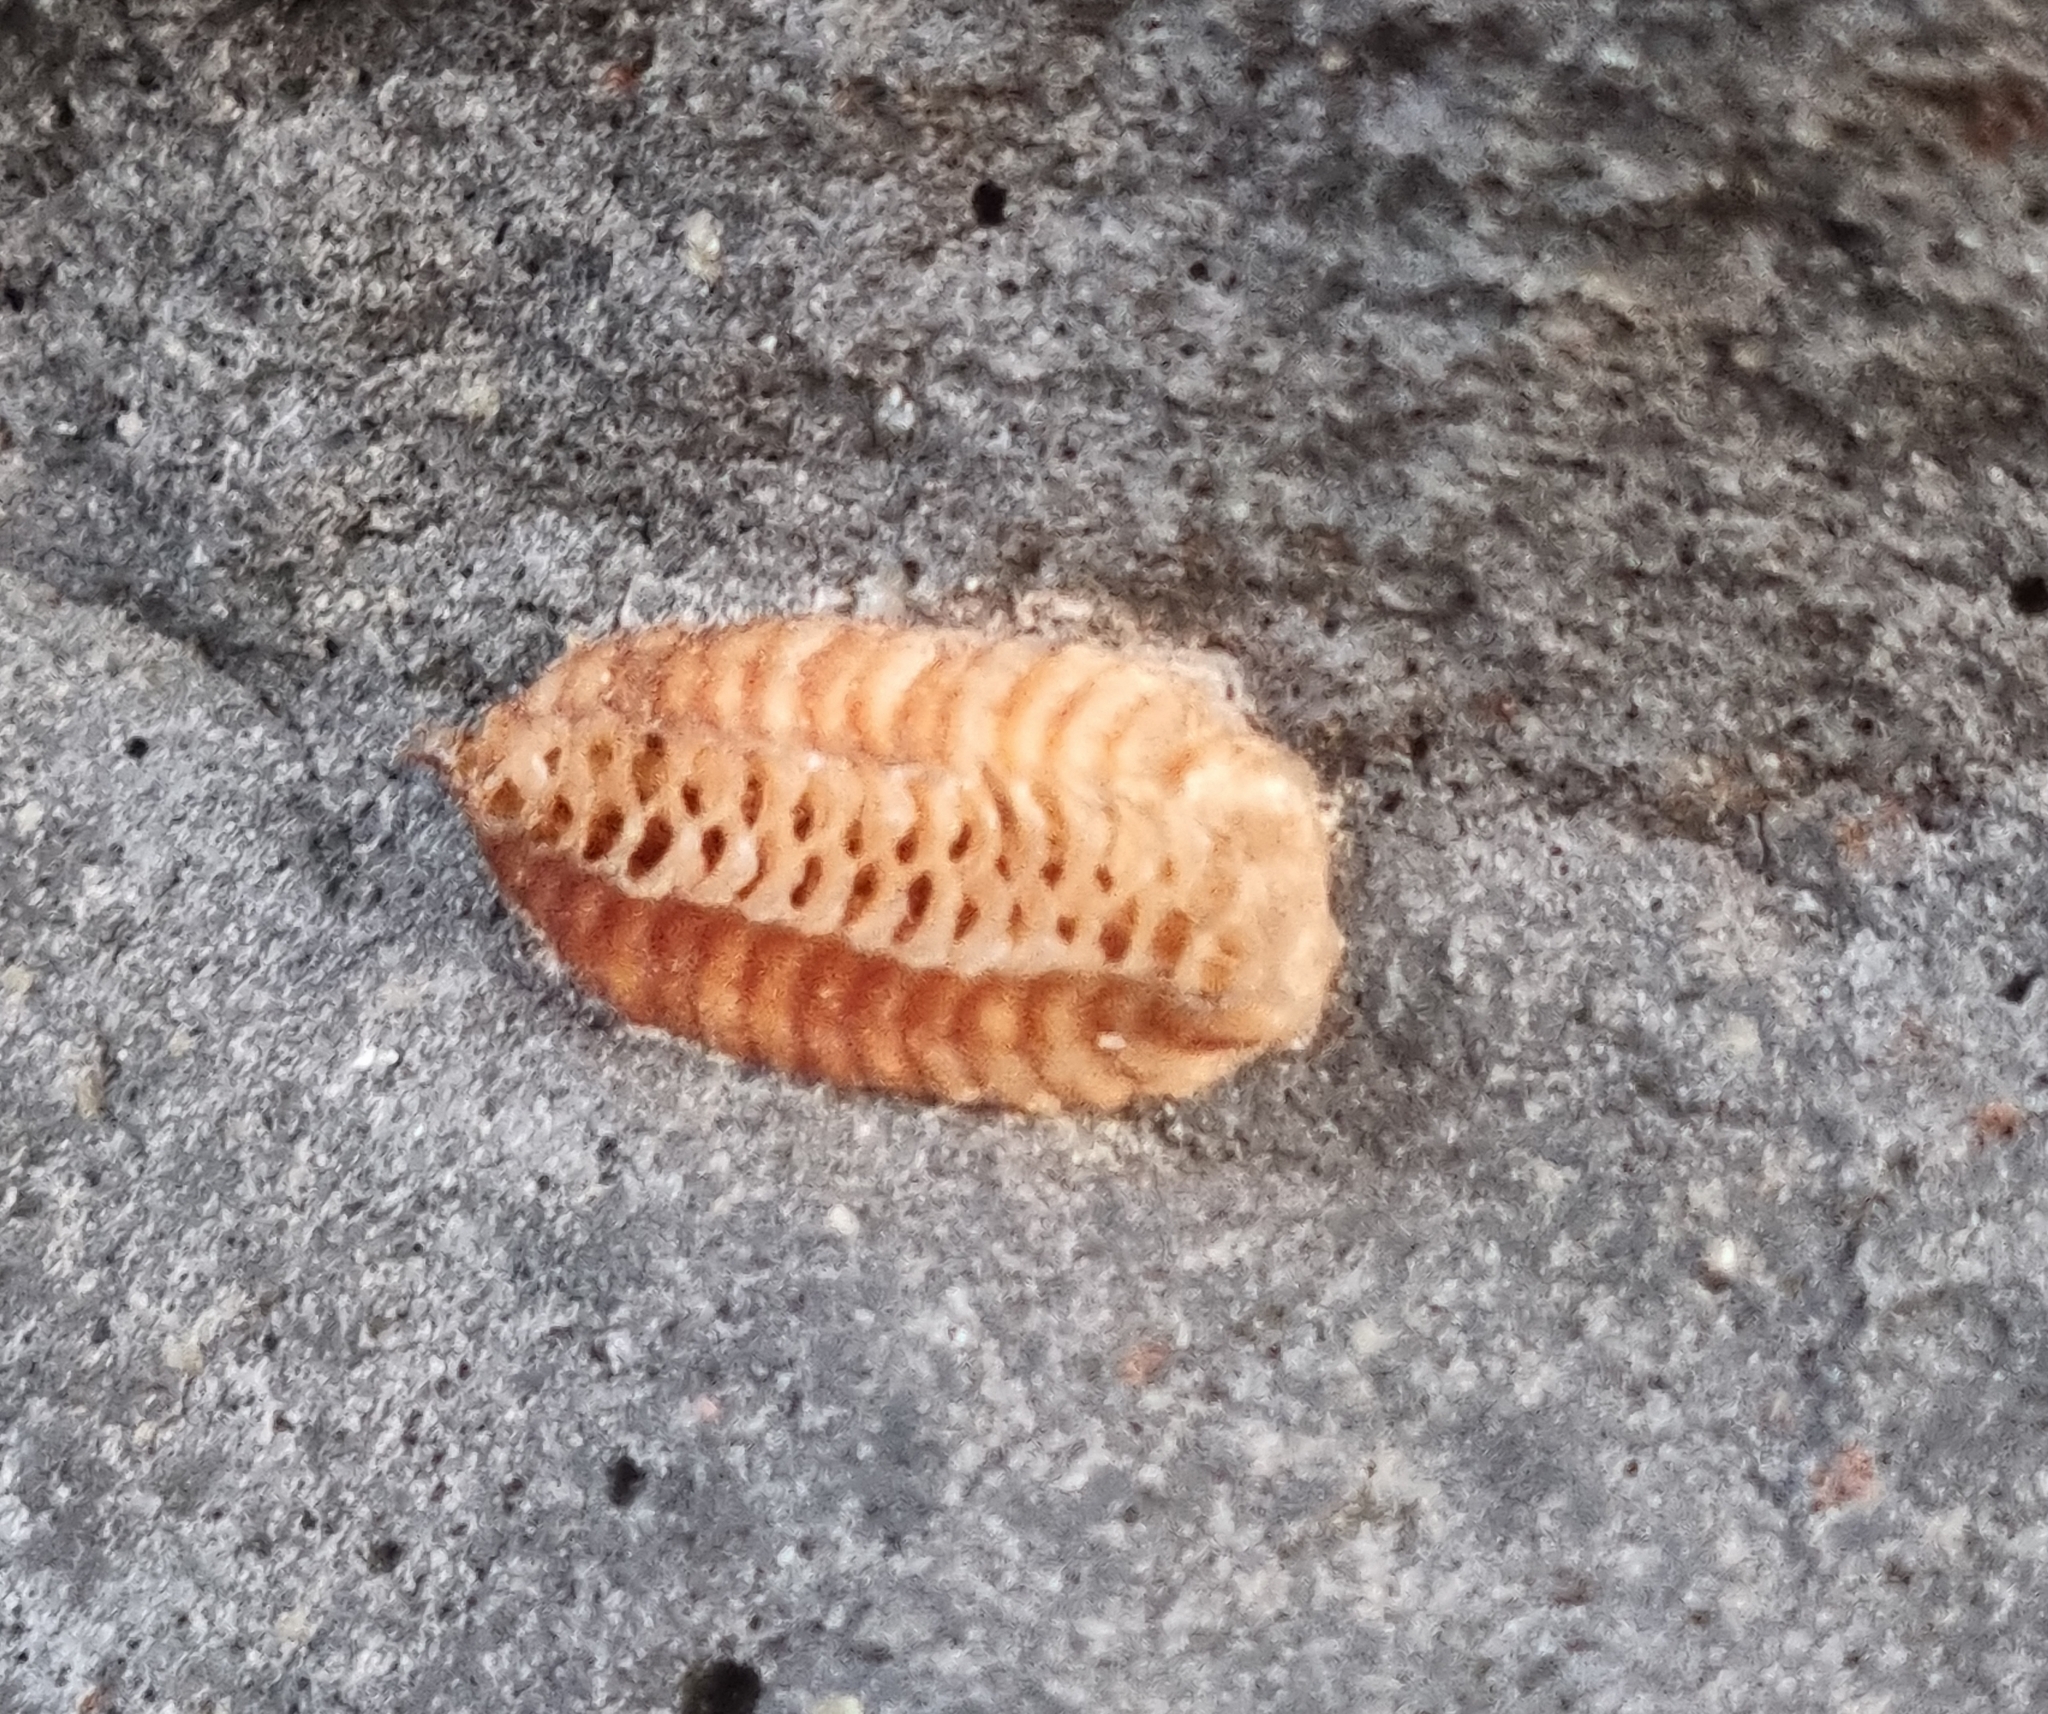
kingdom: Animalia
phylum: Arthropoda
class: Insecta
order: Mantodea
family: Mantidae
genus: Orthodera
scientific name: Orthodera novaezealandiae
